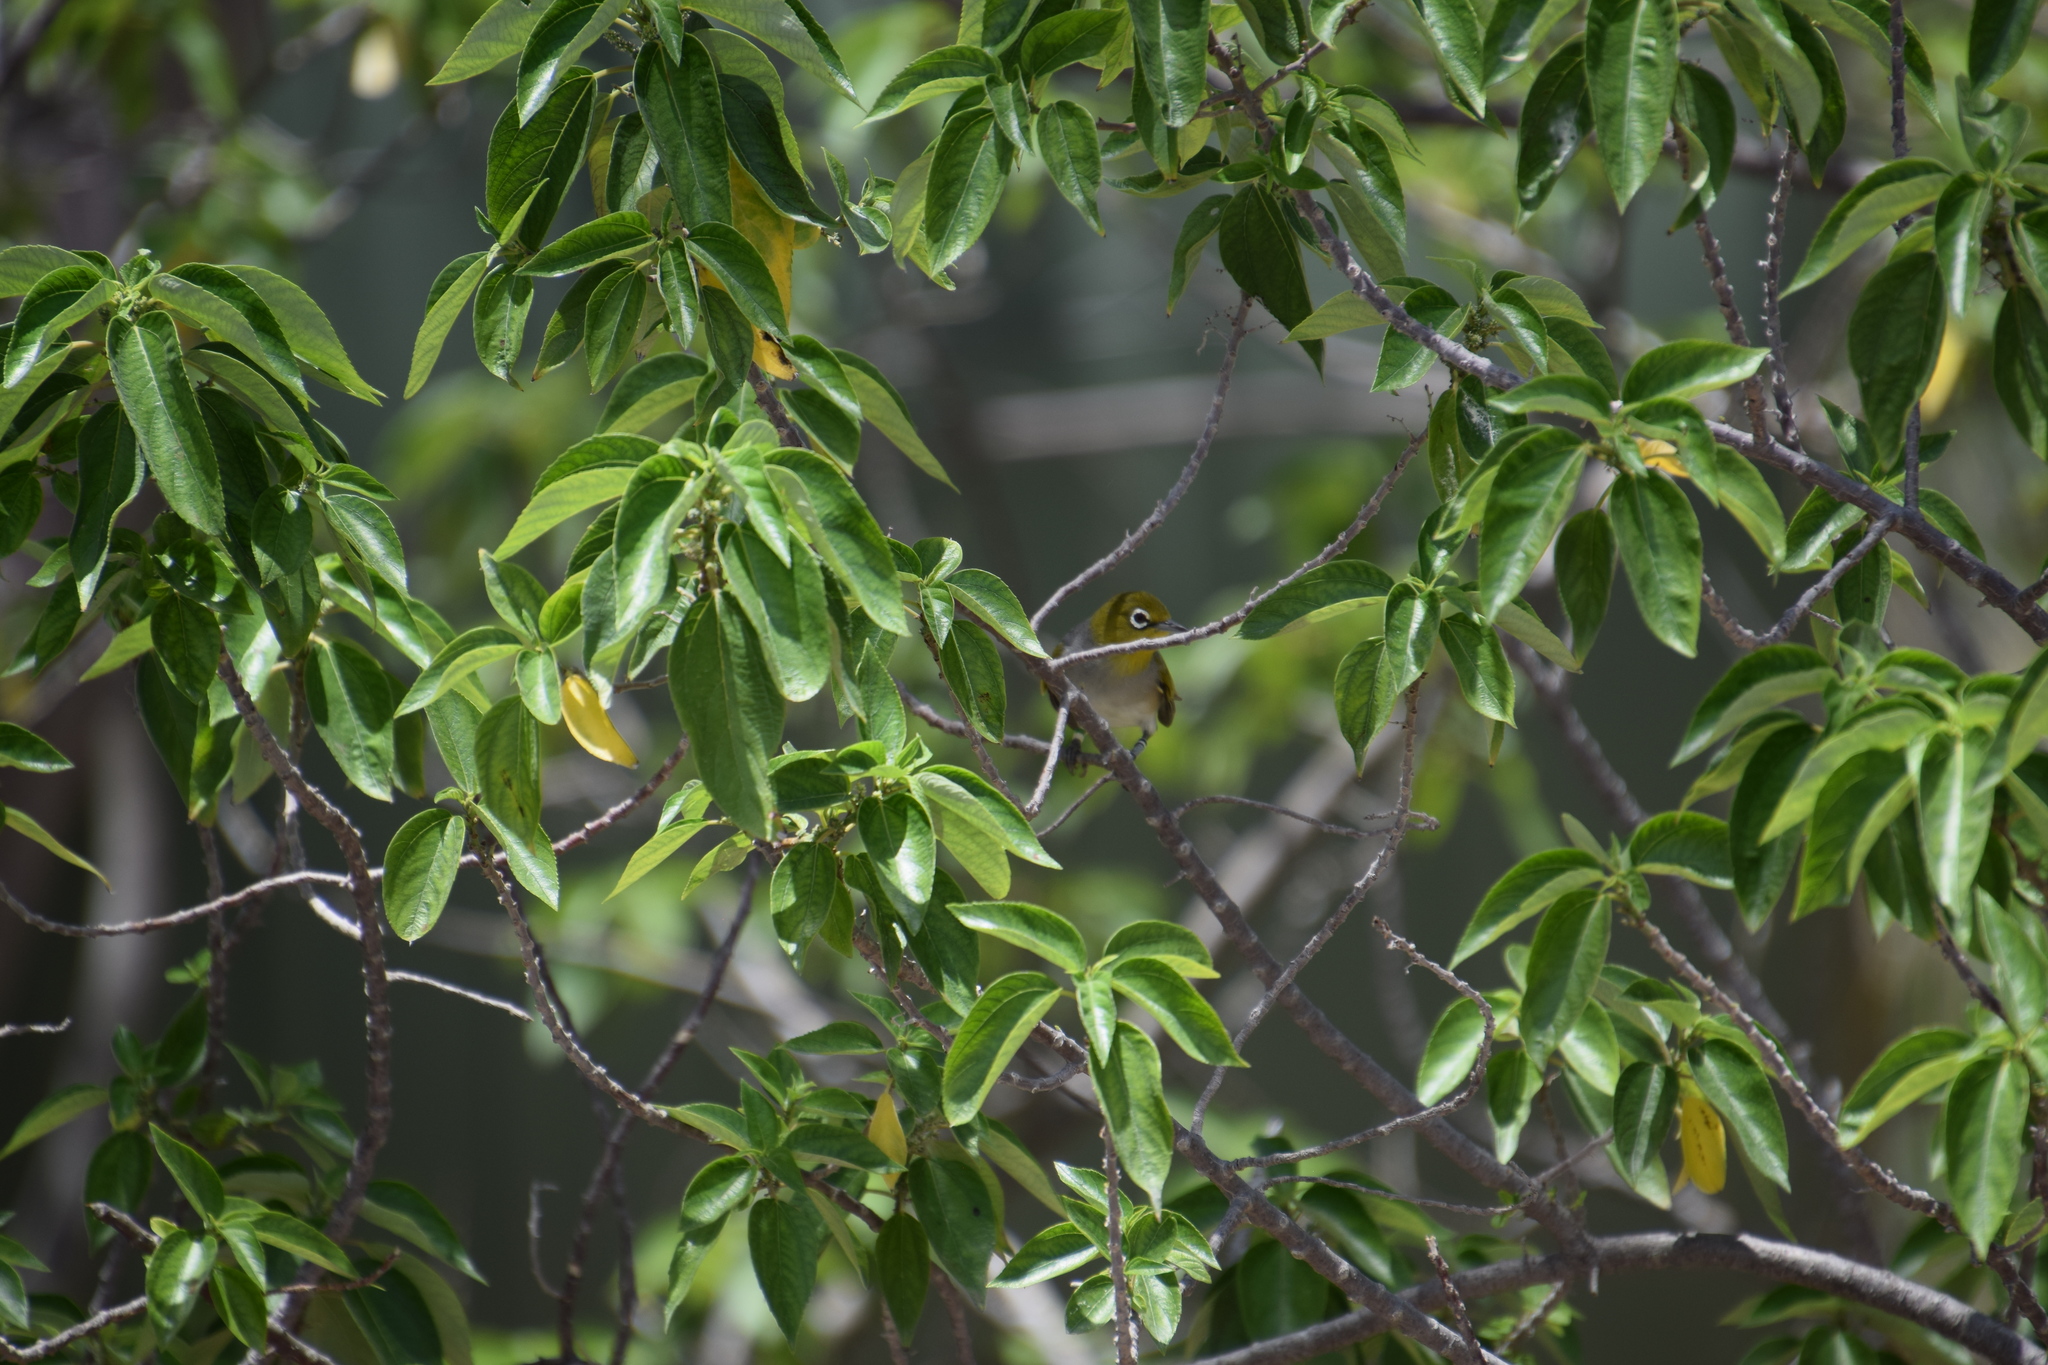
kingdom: Animalia
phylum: Chordata
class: Aves
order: Passeriformes
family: Zosteropidae
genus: Zosterops
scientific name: Zosterops lateralis
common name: Silvereye
